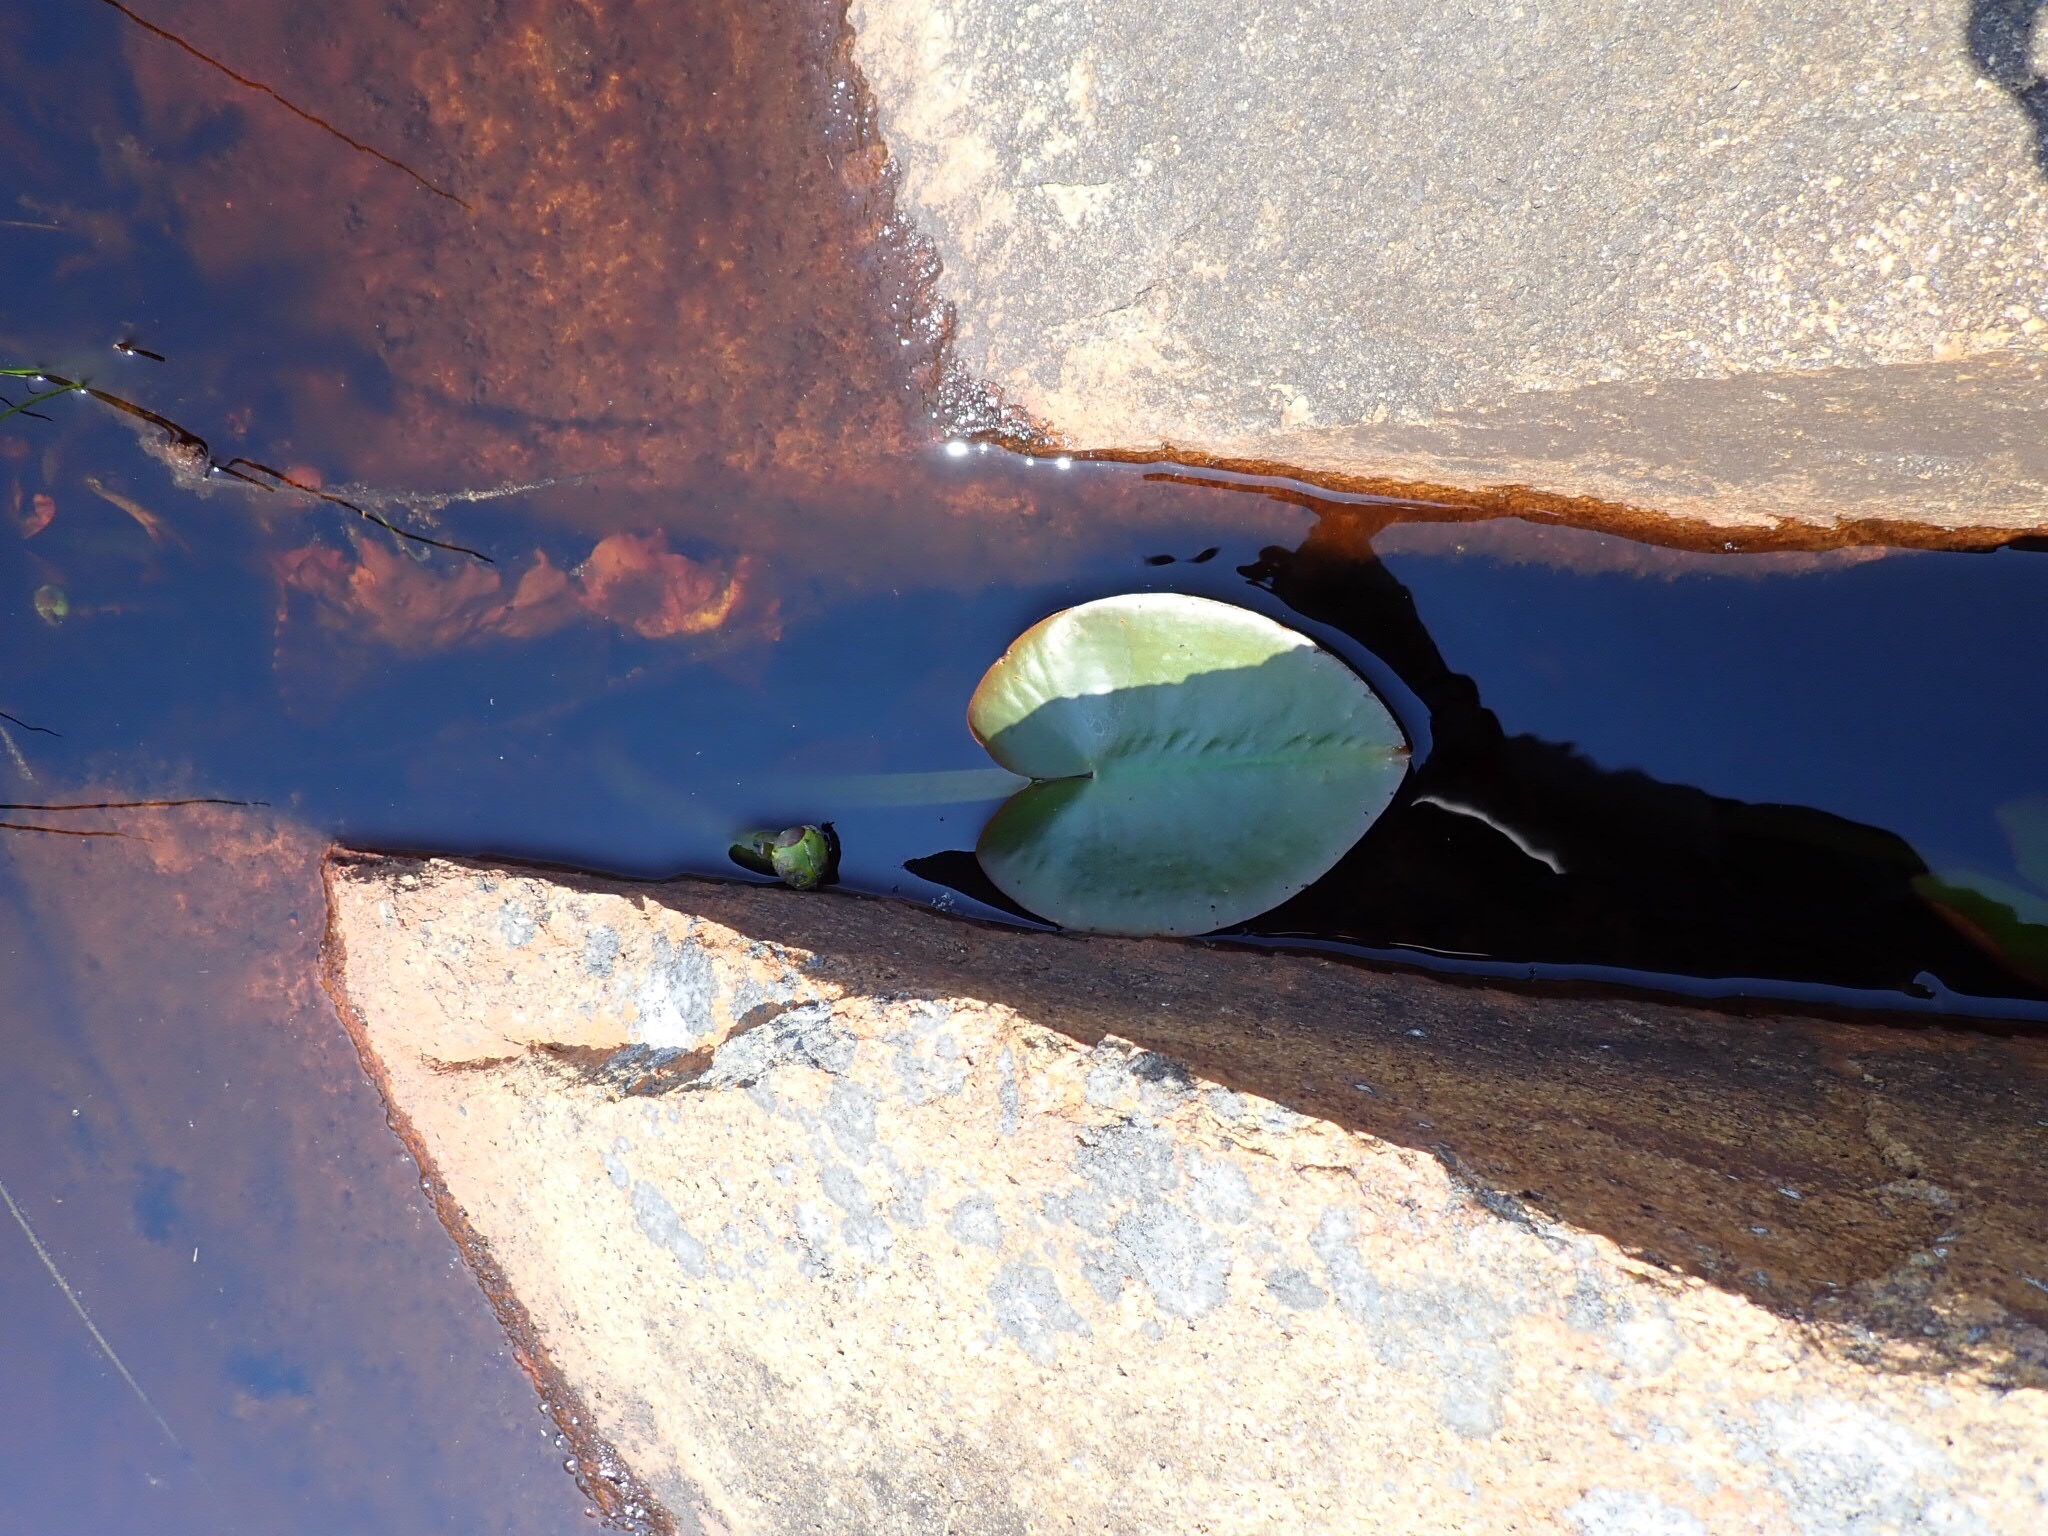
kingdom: Plantae
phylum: Tracheophyta
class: Magnoliopsida
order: Nymphaeales
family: Nymphaeaceae
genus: Nuphar
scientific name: Nuphar variegata
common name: Beaver-root
